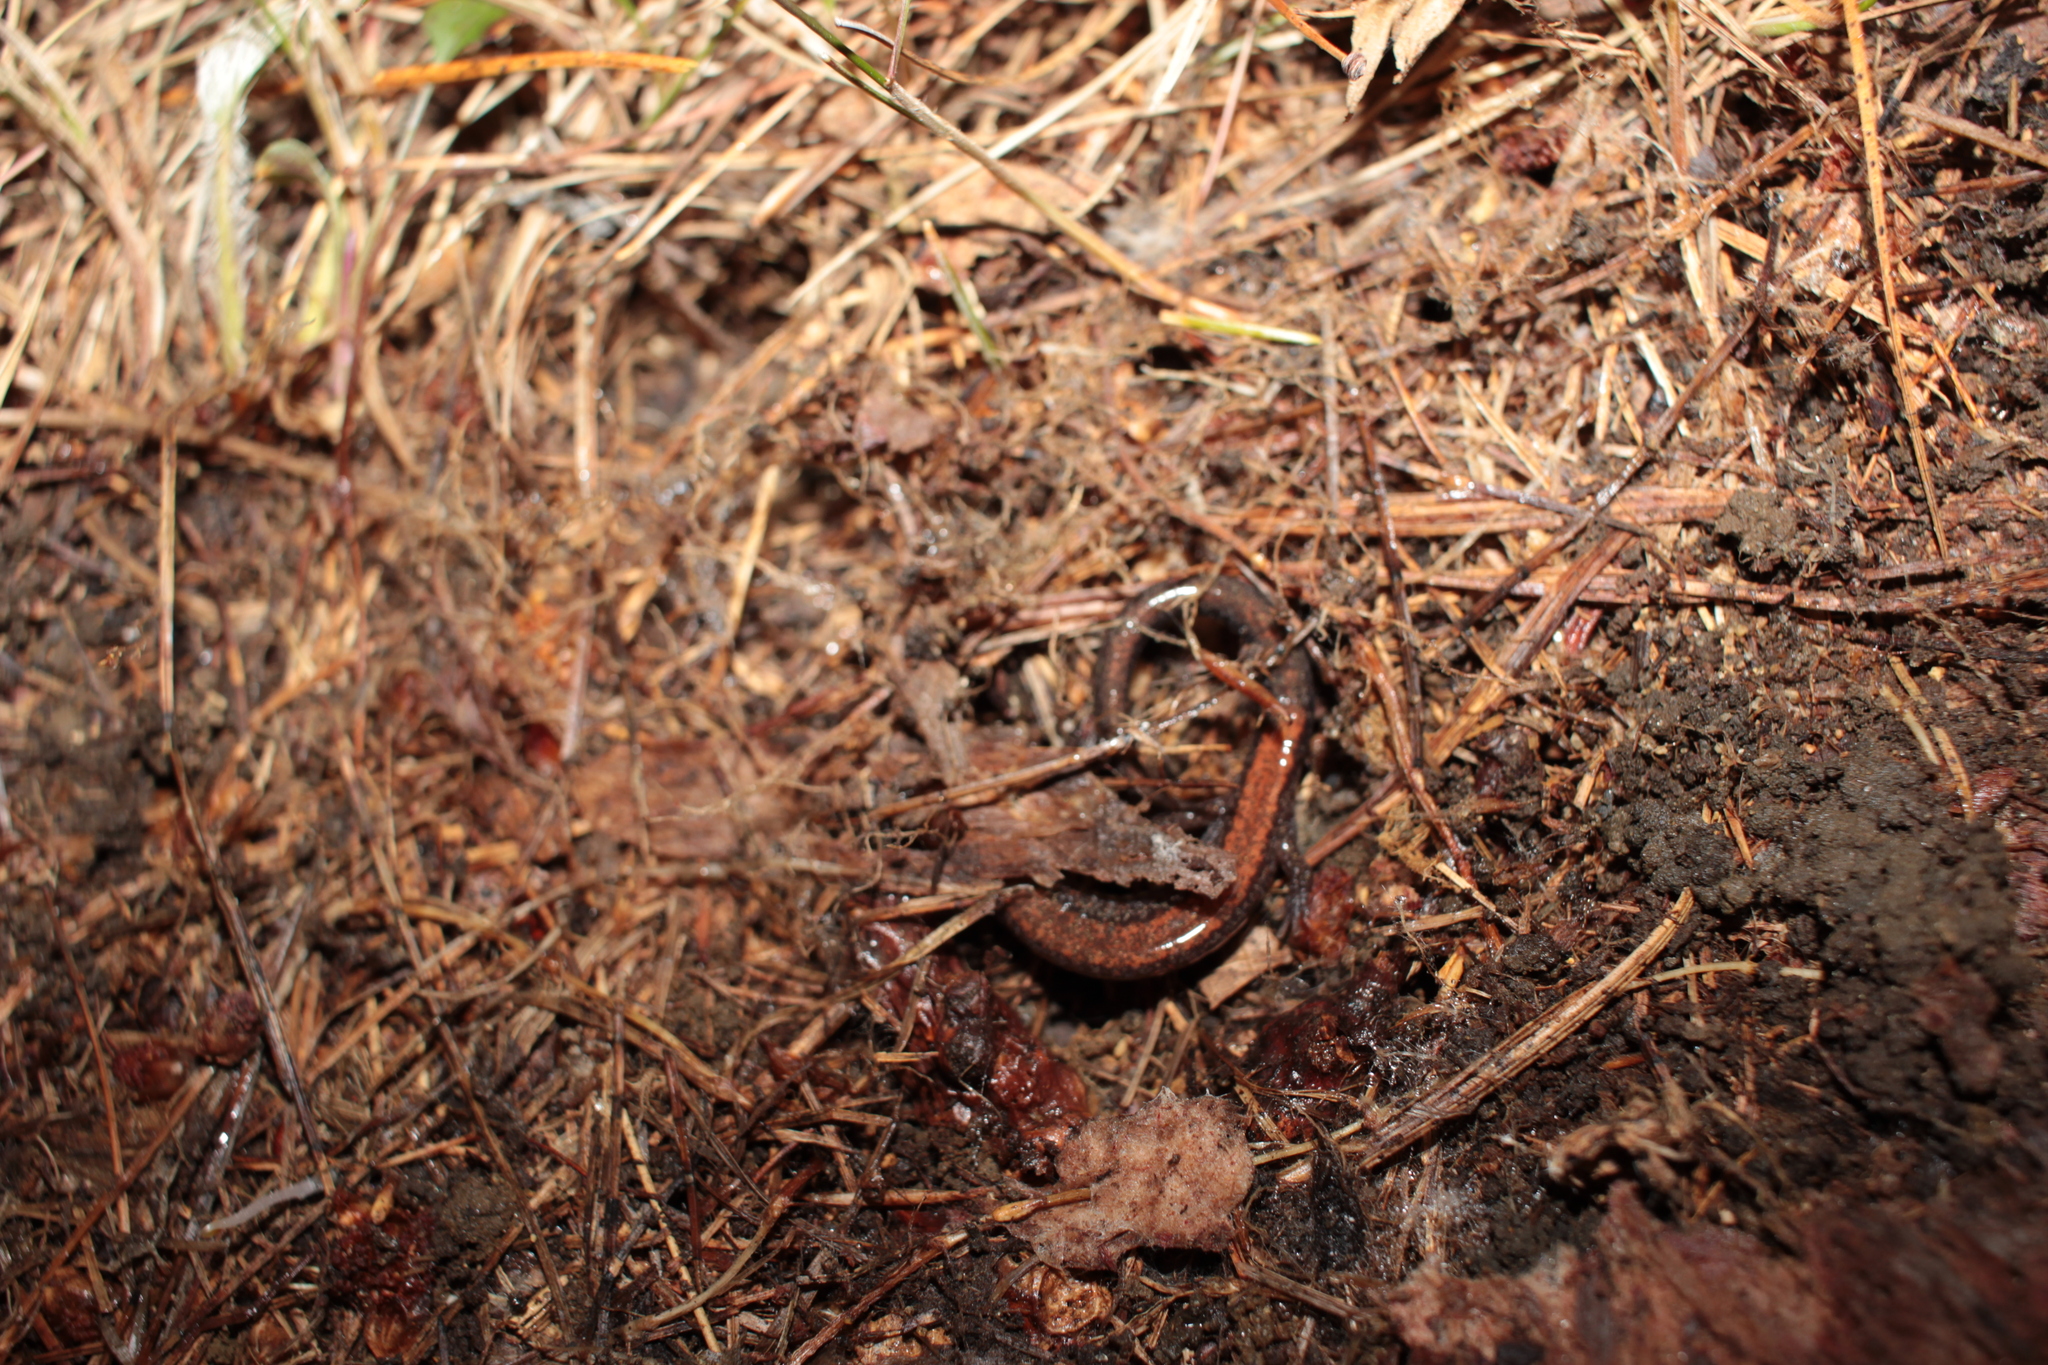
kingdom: Animalia
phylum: Chordata
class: Amphibia
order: Caudata
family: Plethodontidae
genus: Plethodon
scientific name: Plethodon cinereus
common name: Redback salamander
